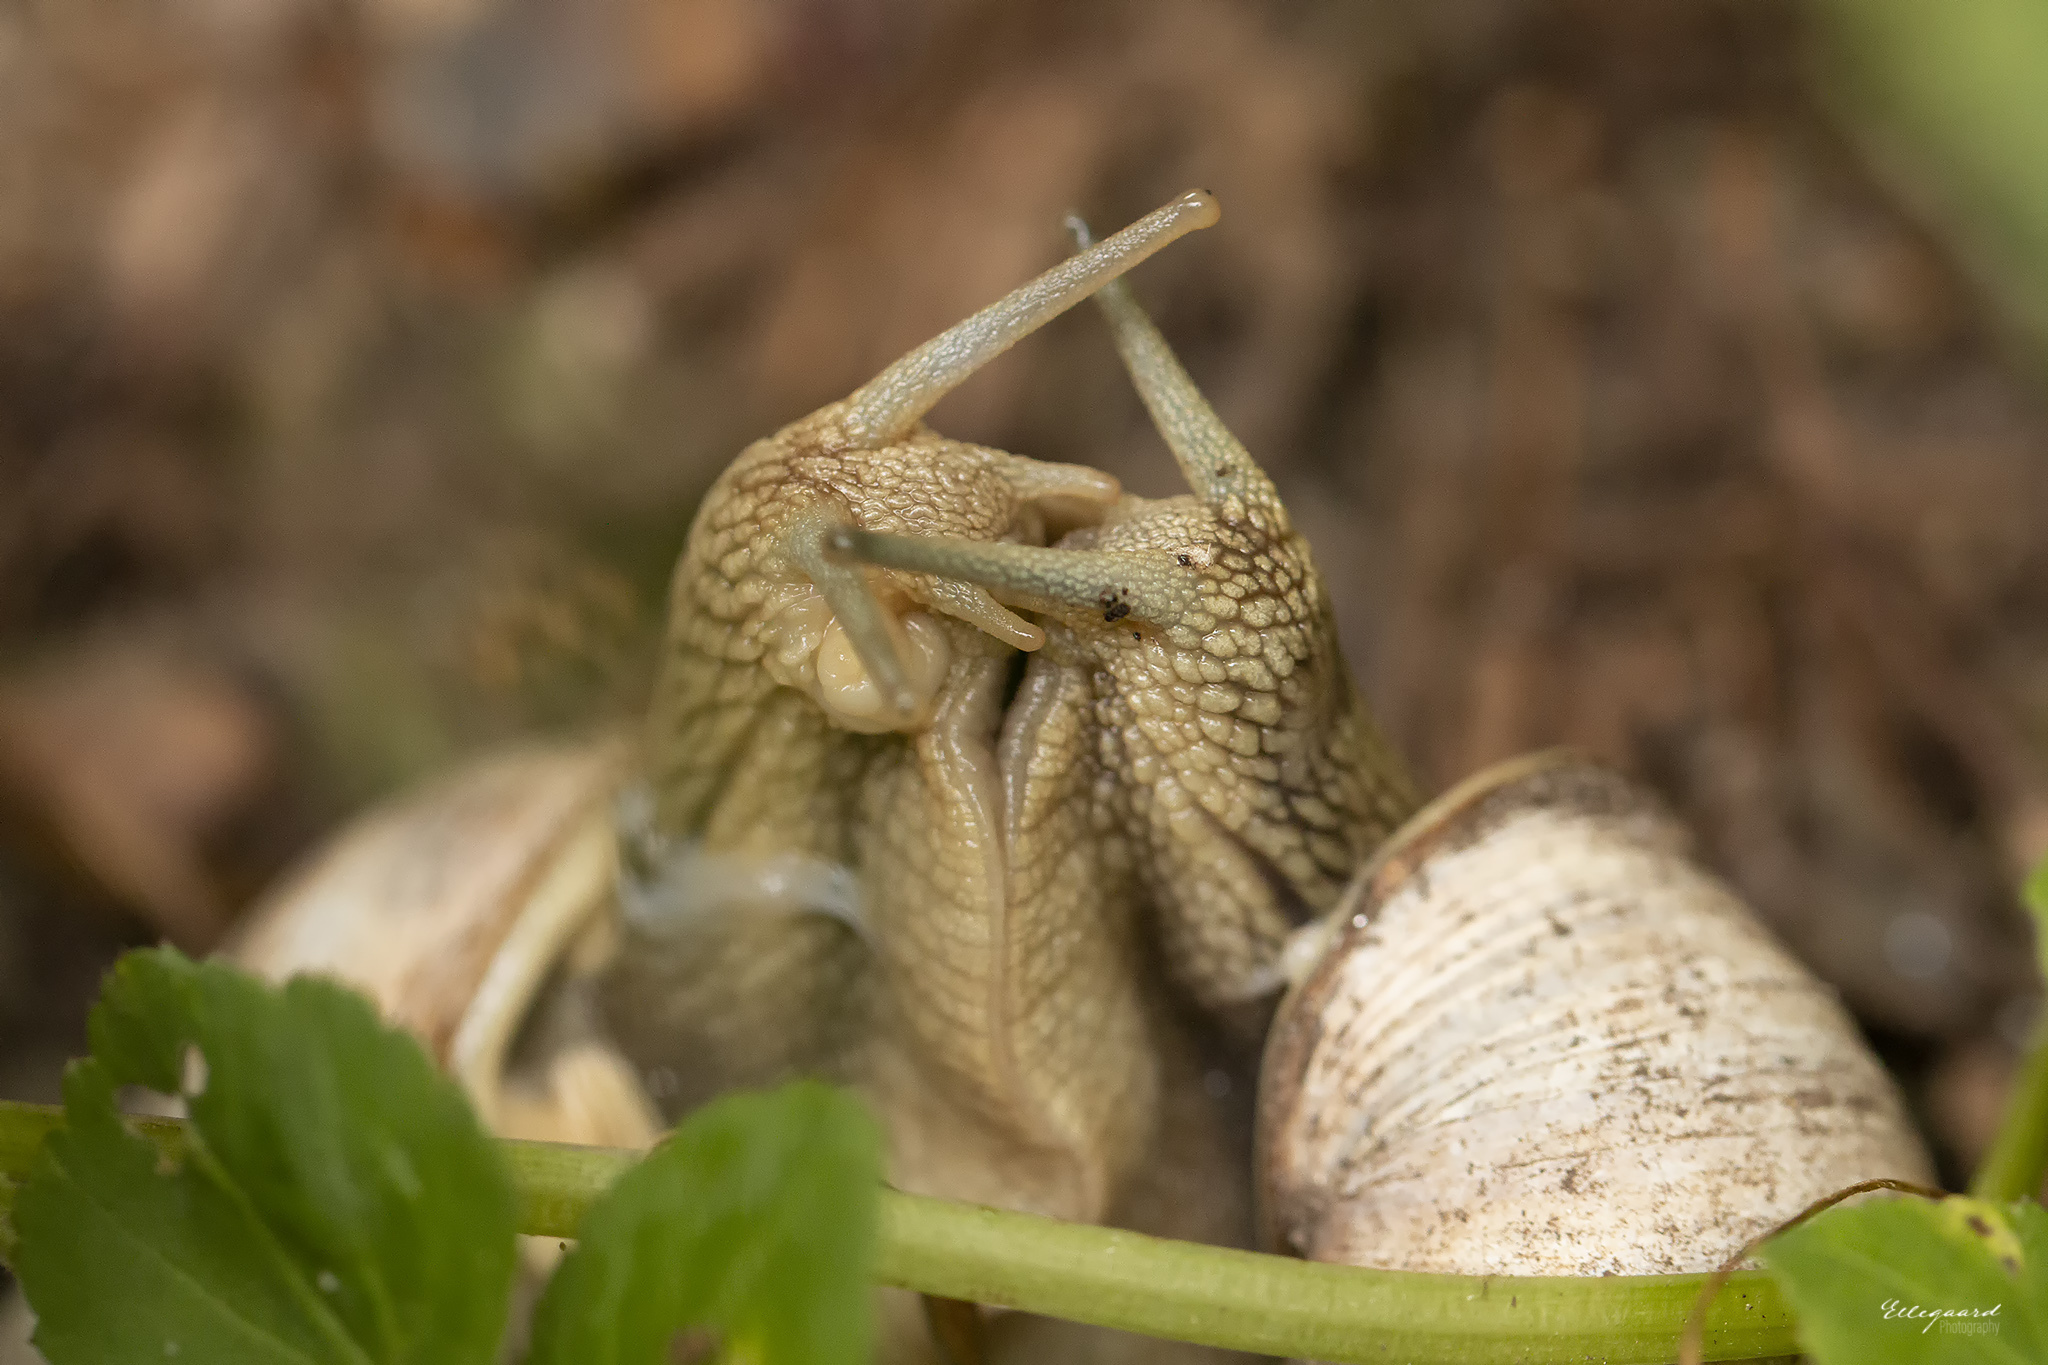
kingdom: Animalia
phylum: Mollusca
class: Gastropoda
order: Stylommatophora
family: Helicidae
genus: Helix
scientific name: Helix pomatia
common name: Roman snail
